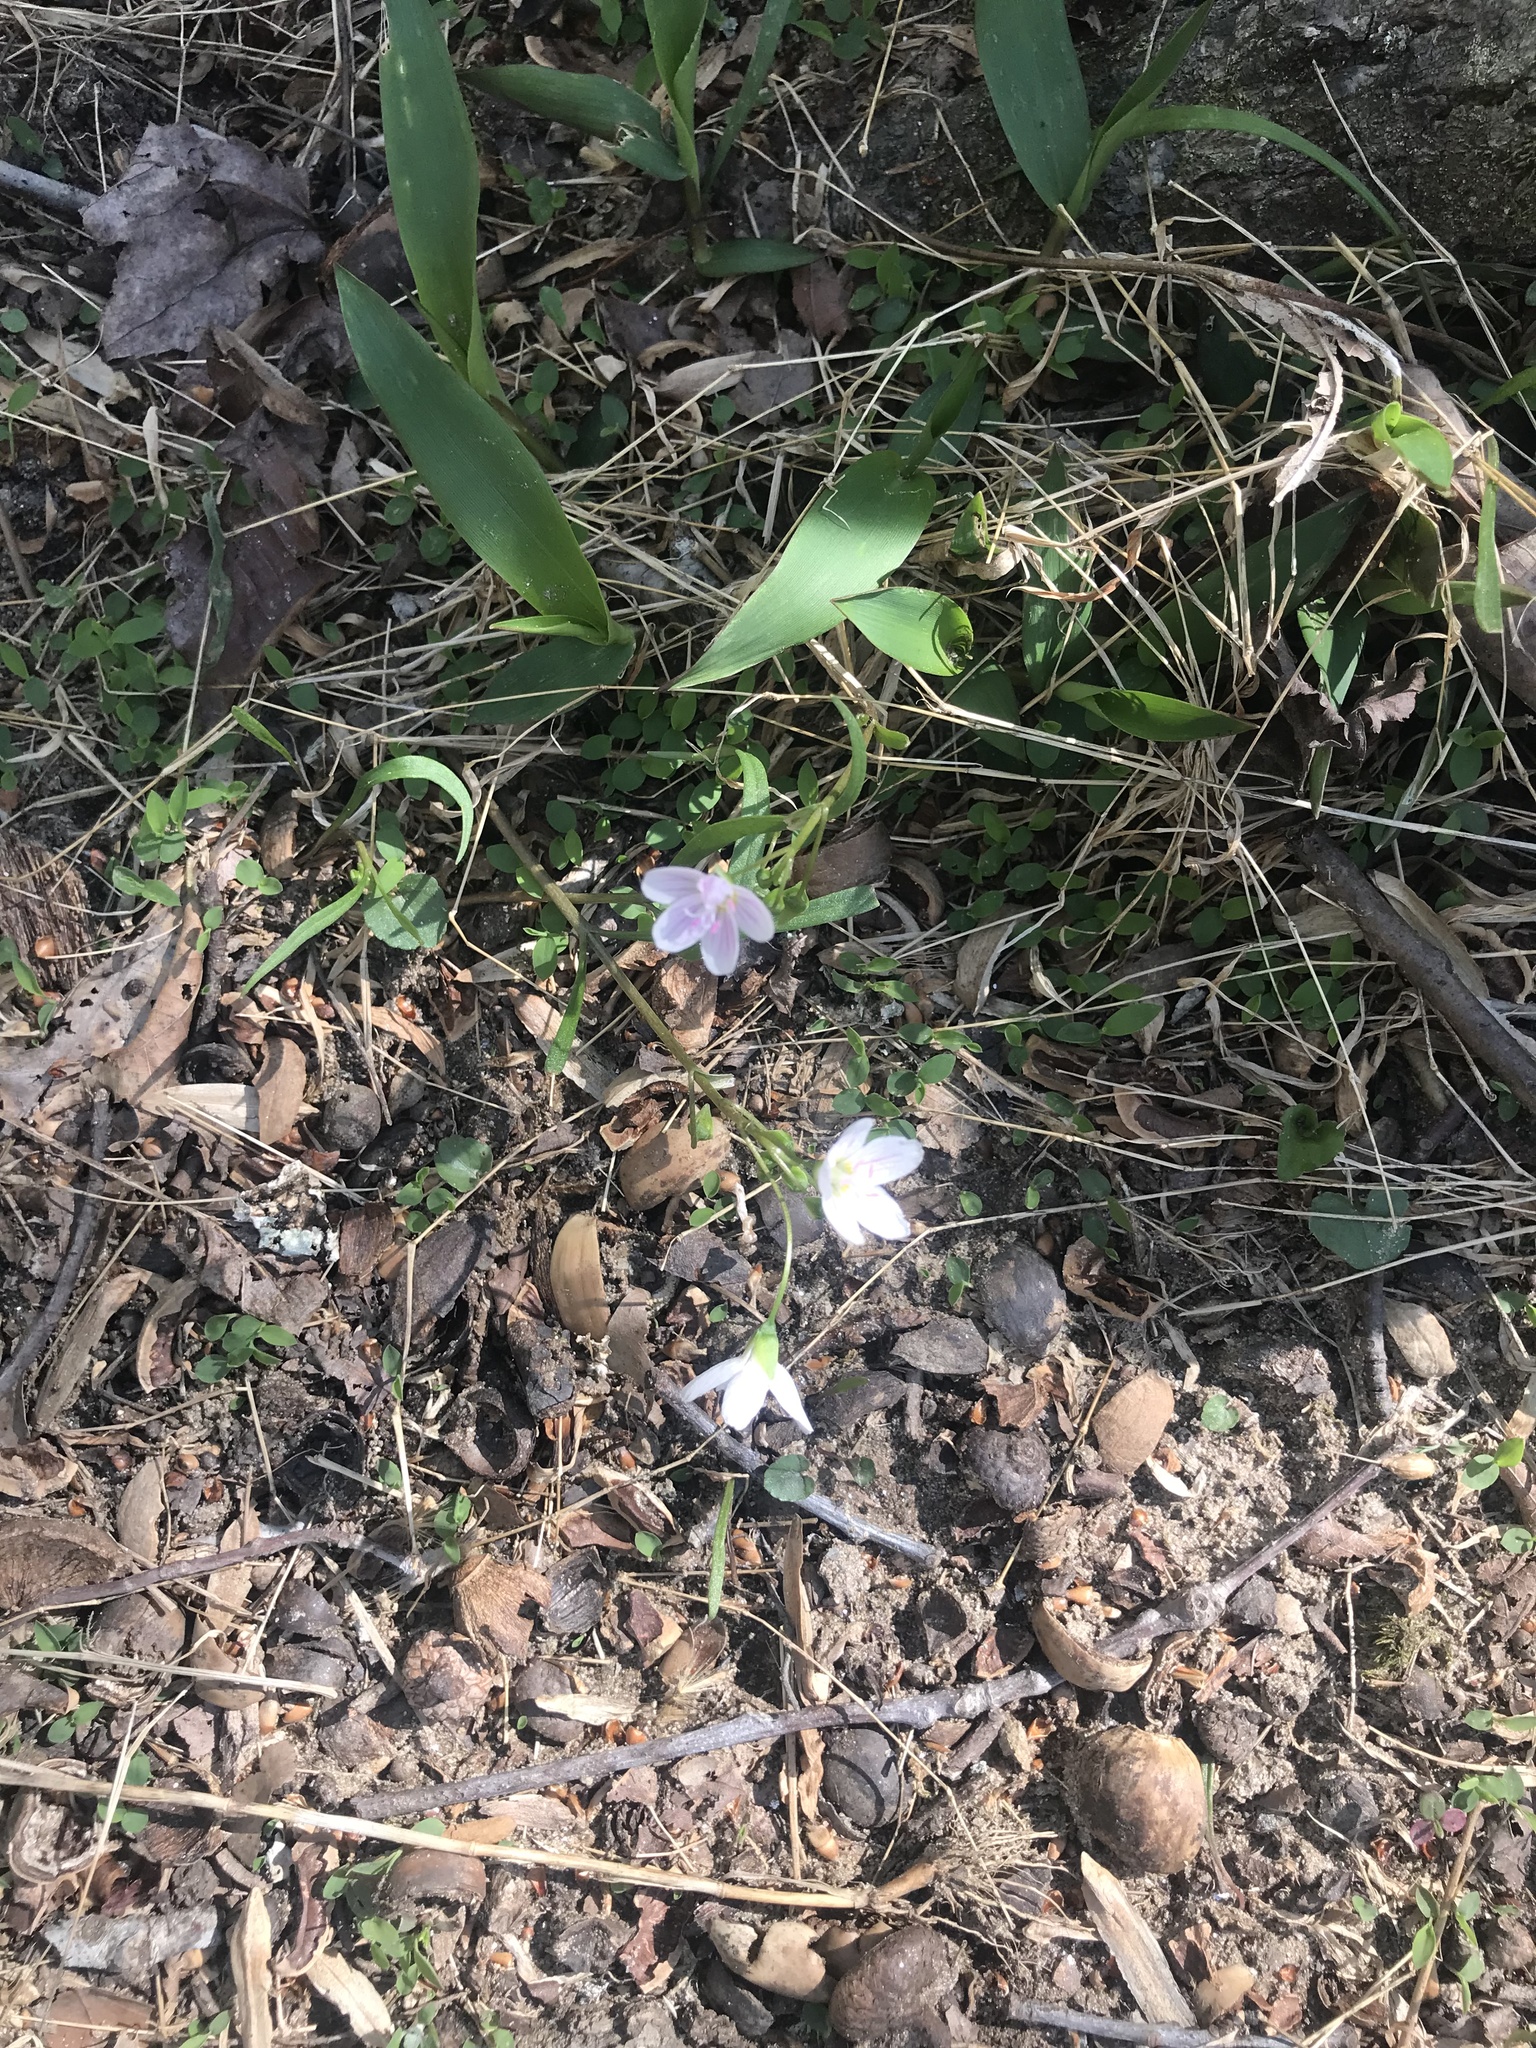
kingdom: Plantae
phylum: Tracheophyta
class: Magnoliopsida
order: Caryophyllales
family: Montiaceae
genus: Claytonia
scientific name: Claytonia virginica
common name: Virginia springbeauty
